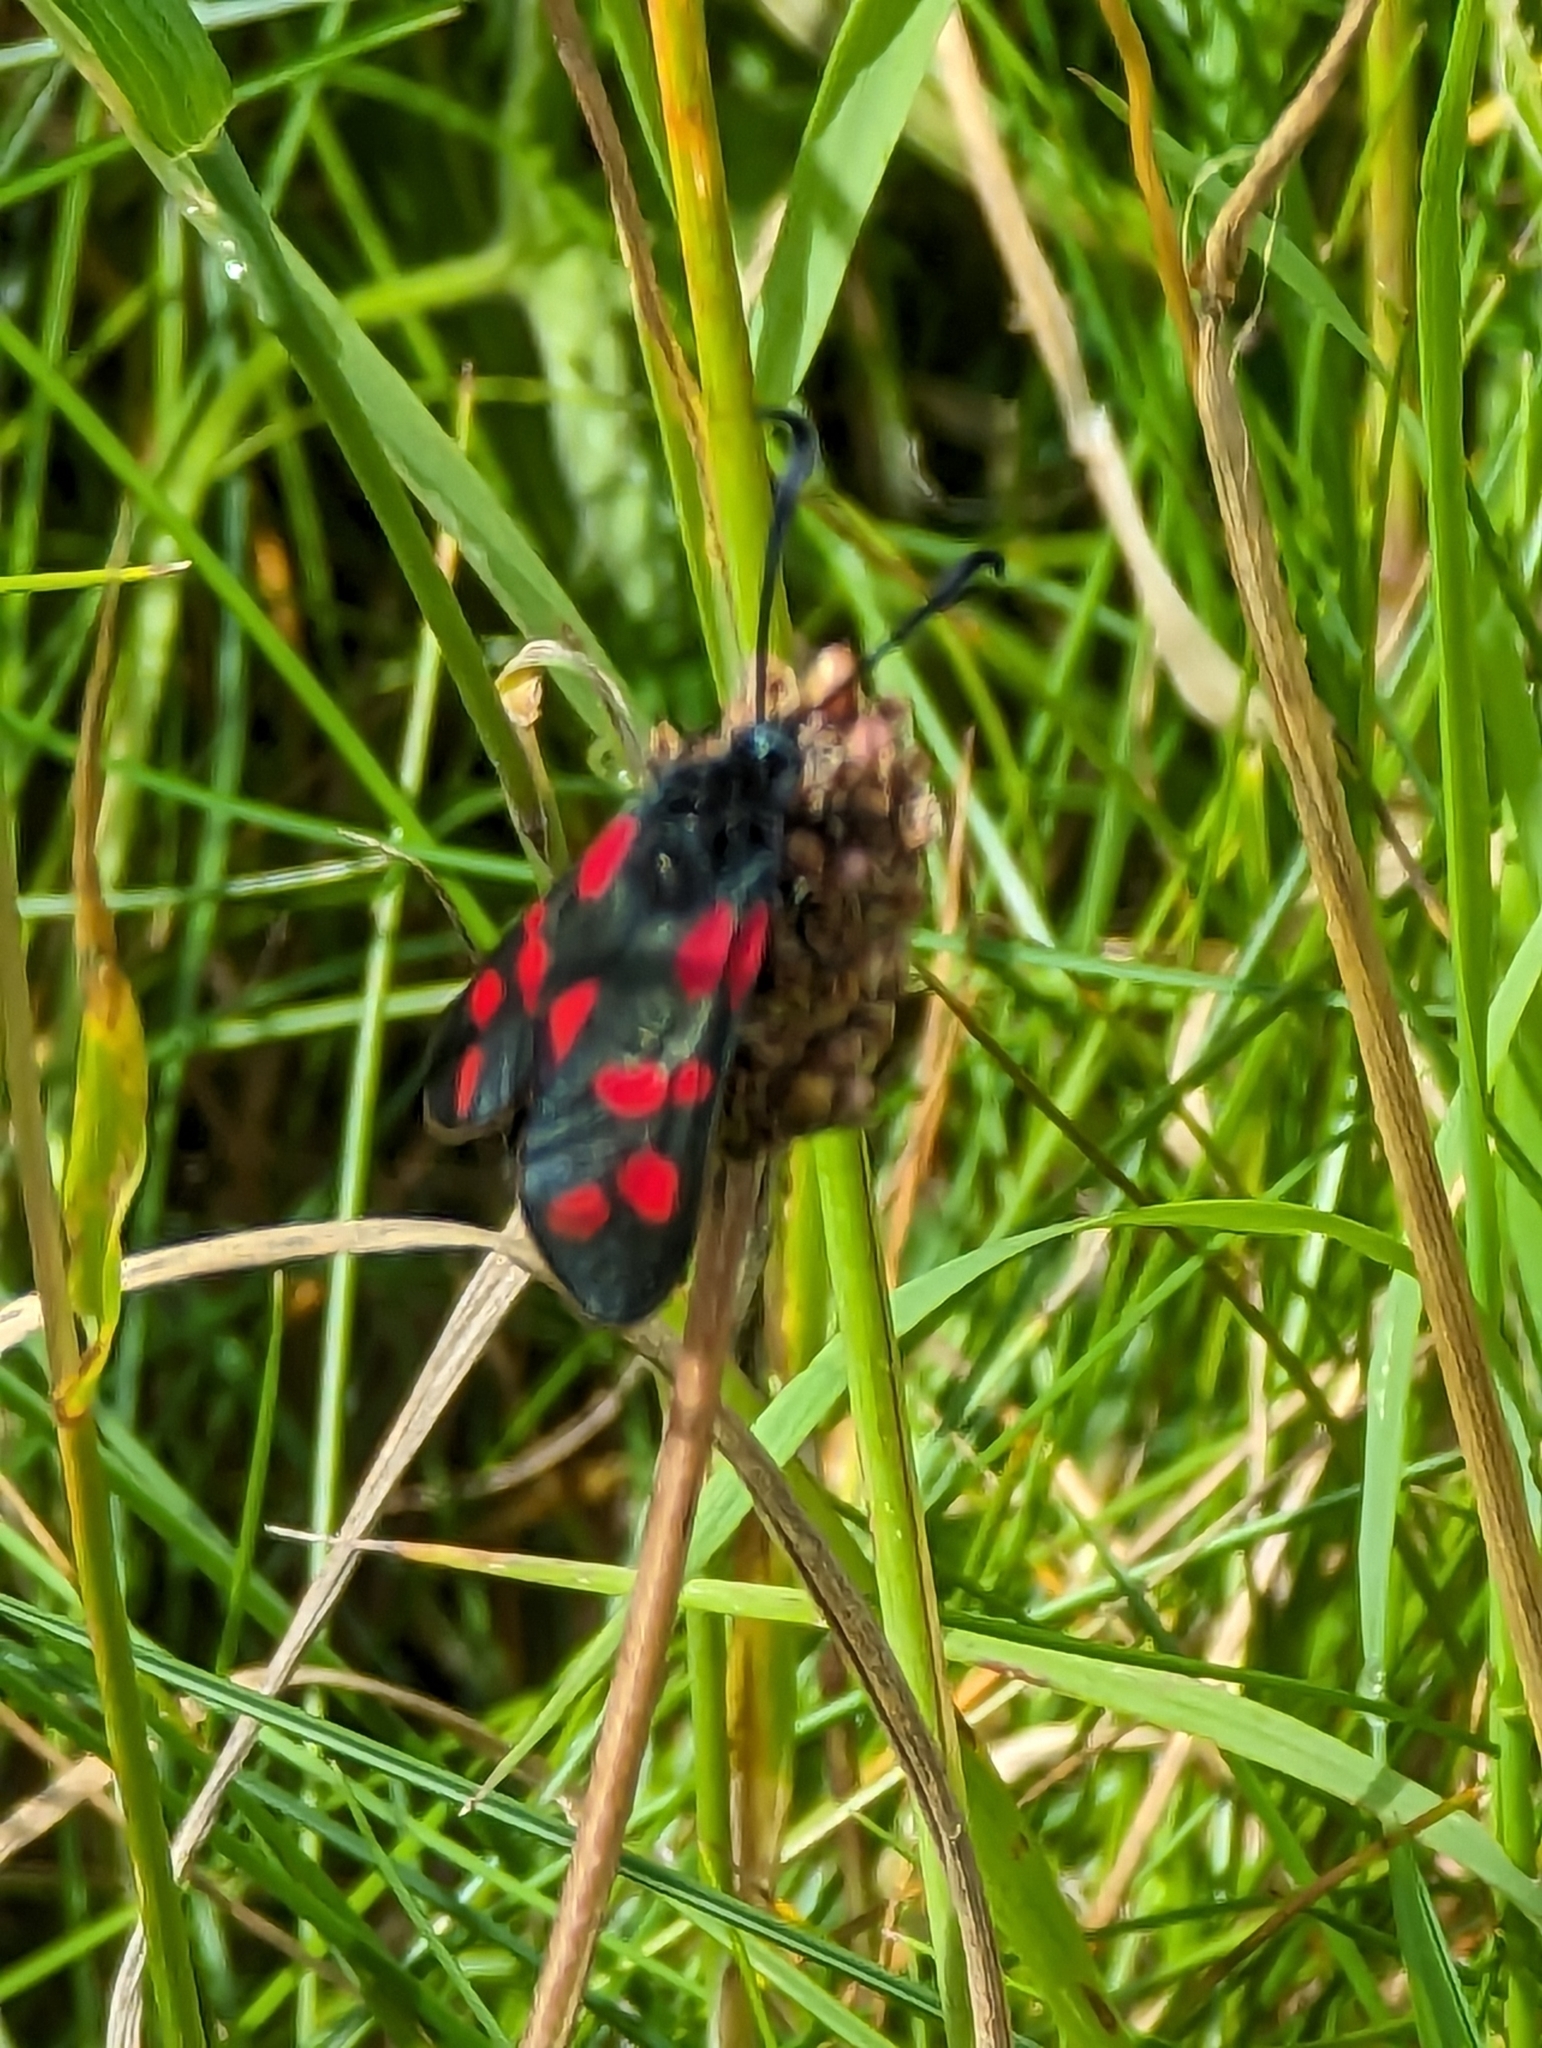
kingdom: Animalia
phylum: Arthropoda
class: Insecta
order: Lepidoptera
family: Zygaenidae
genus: Zygaena
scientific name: Zygaena filipendulae
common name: Six-spot burnet
